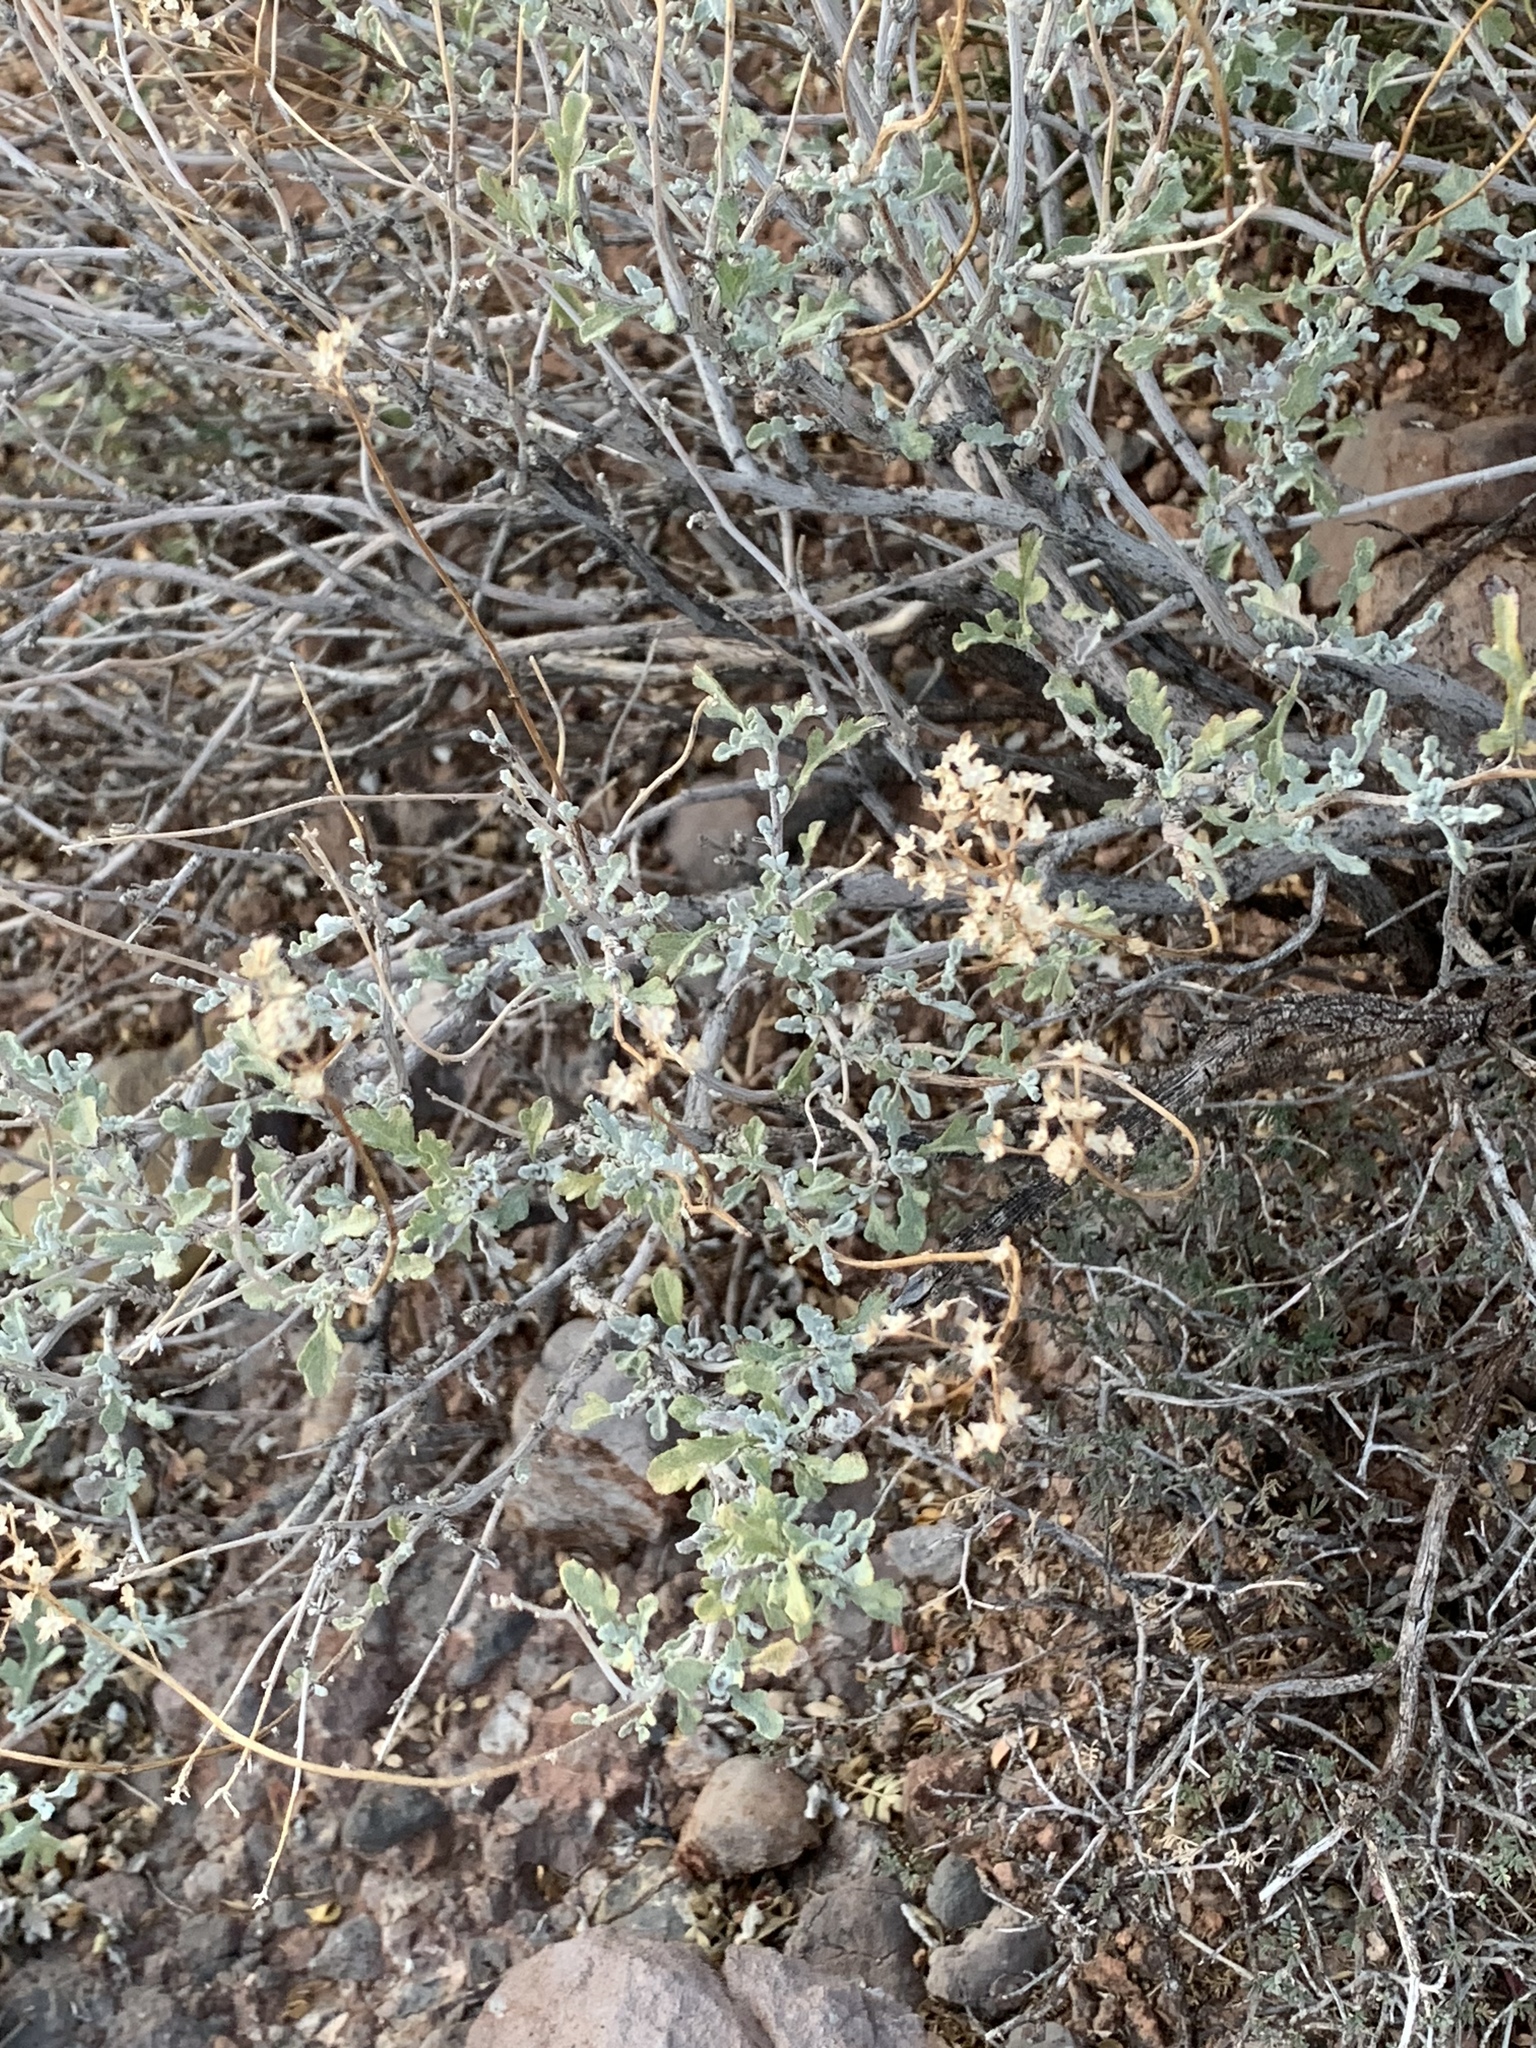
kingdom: Plantae
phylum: Tracheophyta
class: Magnoliopsida
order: Asterales
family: Asteraceae
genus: Parthenium
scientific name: Parthenium incanum
